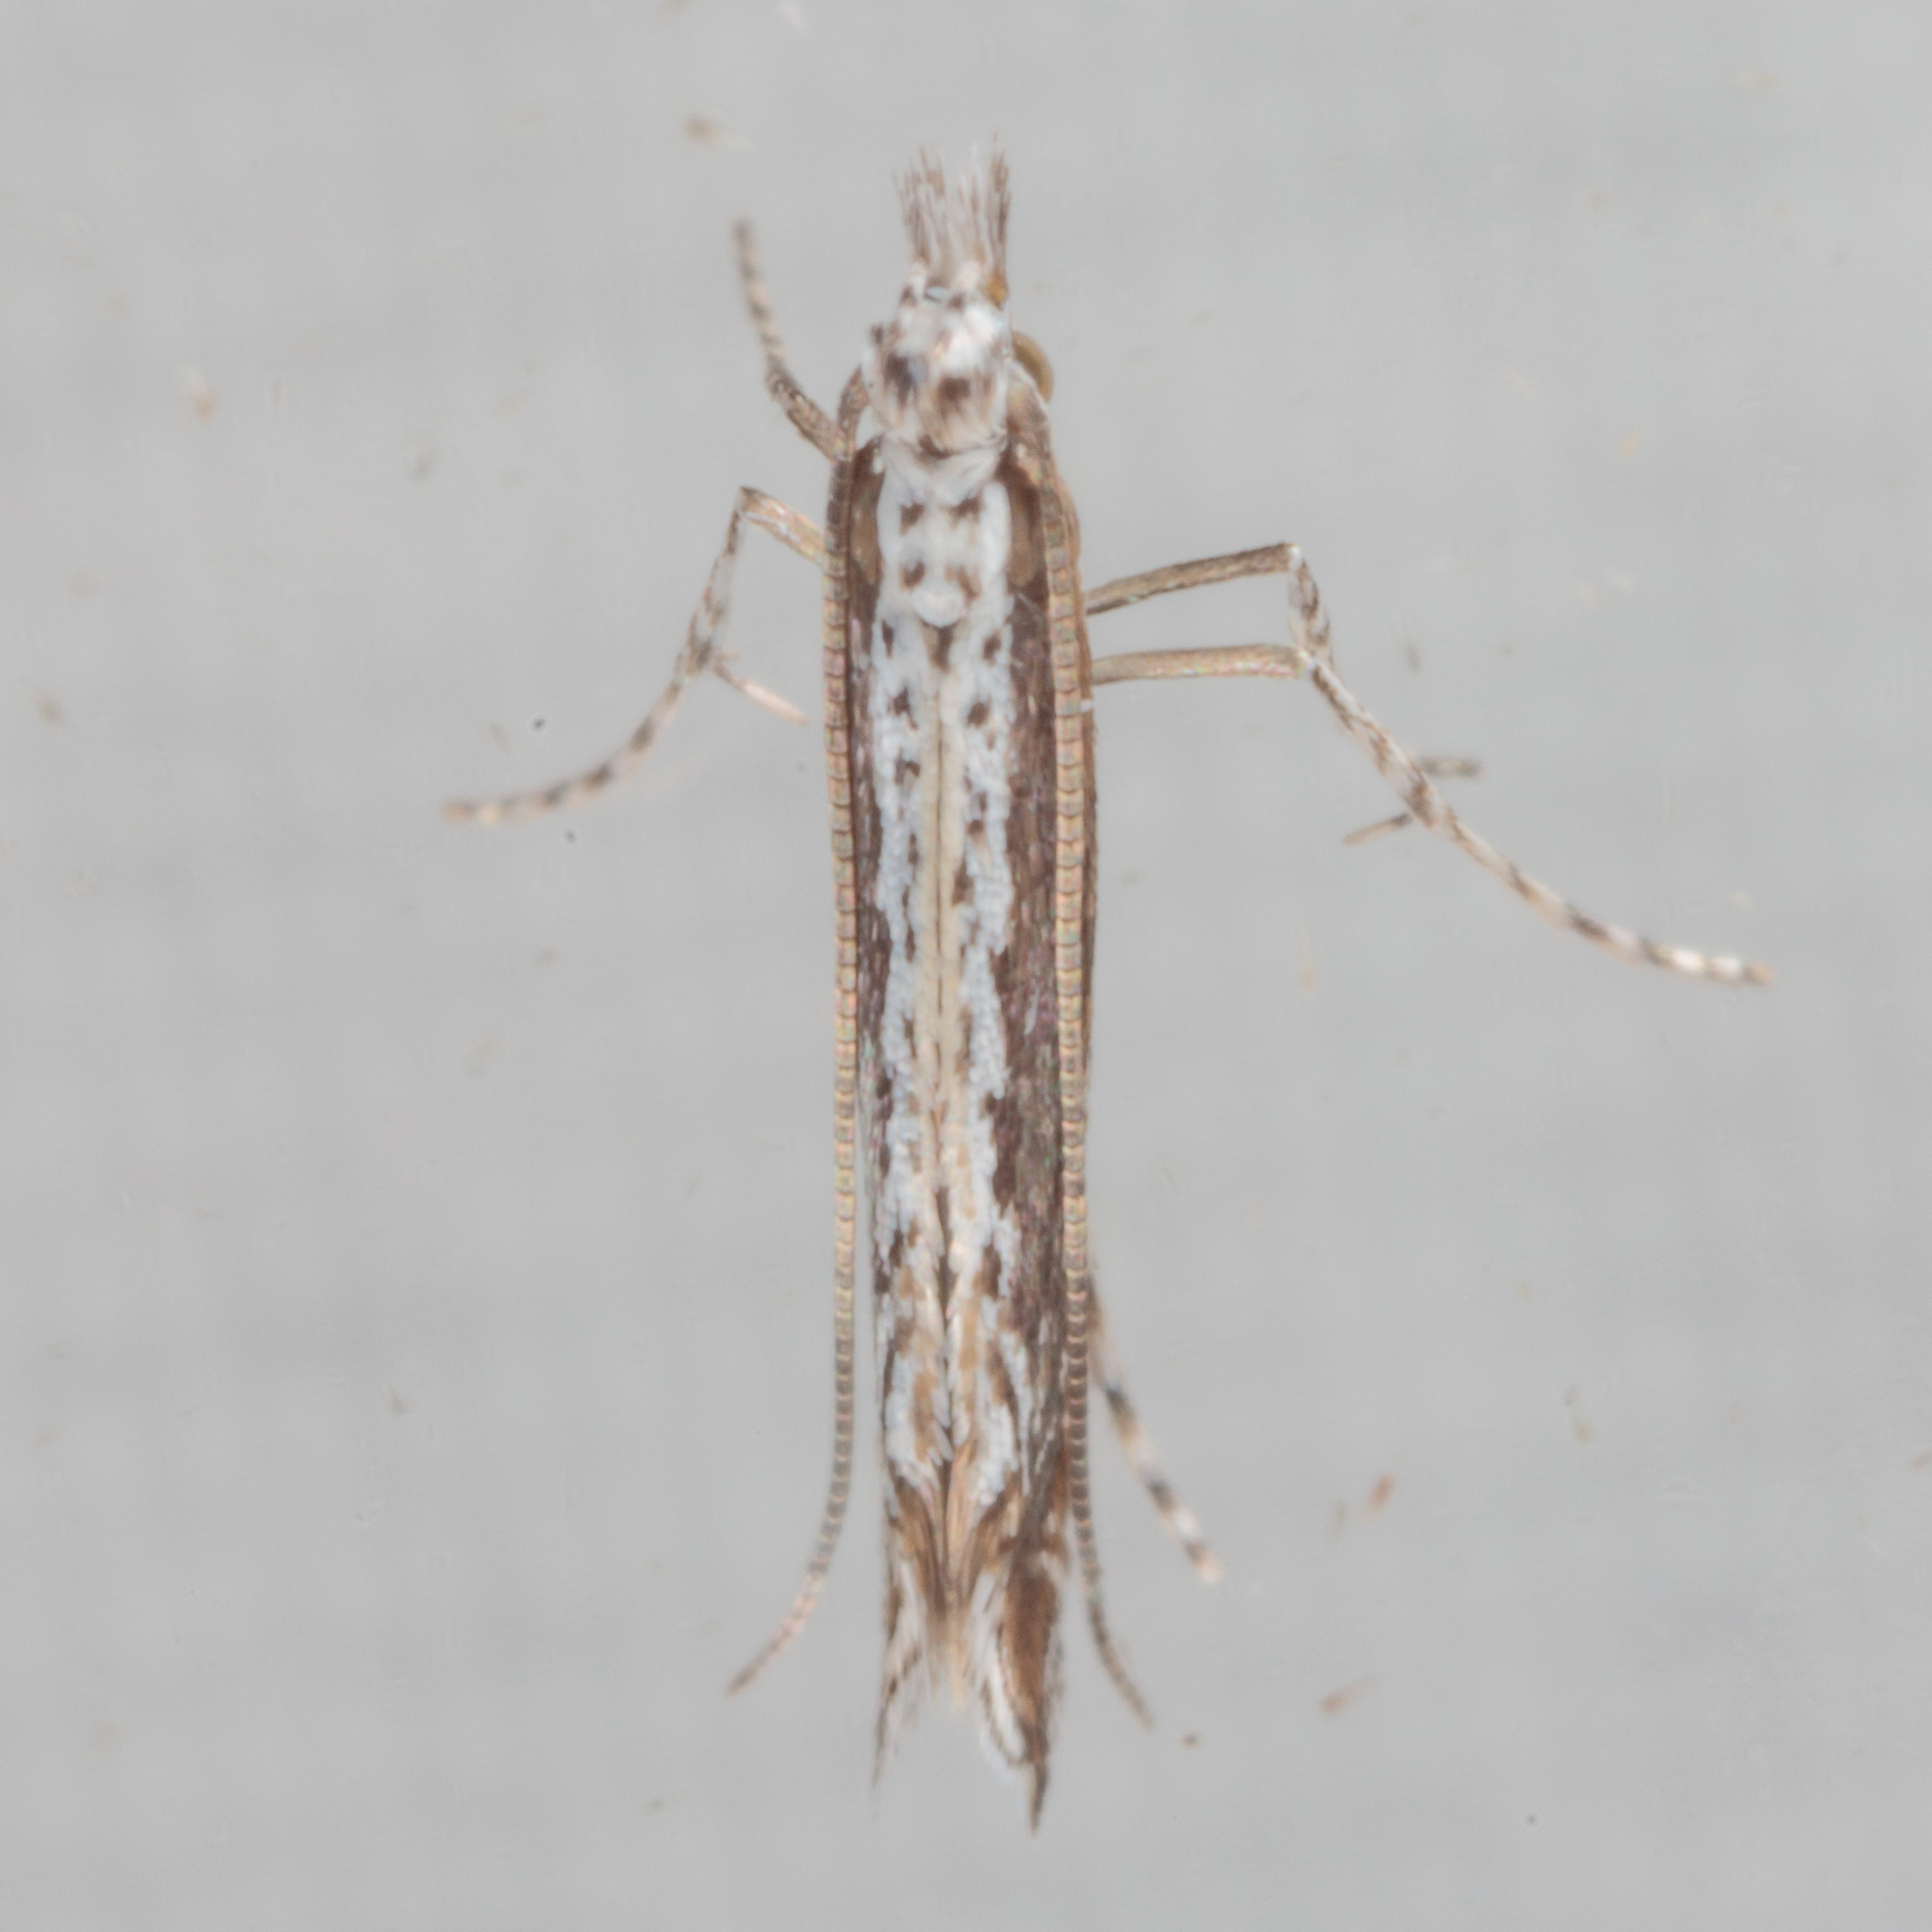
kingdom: Plantae
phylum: Rhodophyta
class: Florideophyceae
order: Gracilariales
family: Gracilariaceae
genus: Gracilaria
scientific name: Gracilaria
